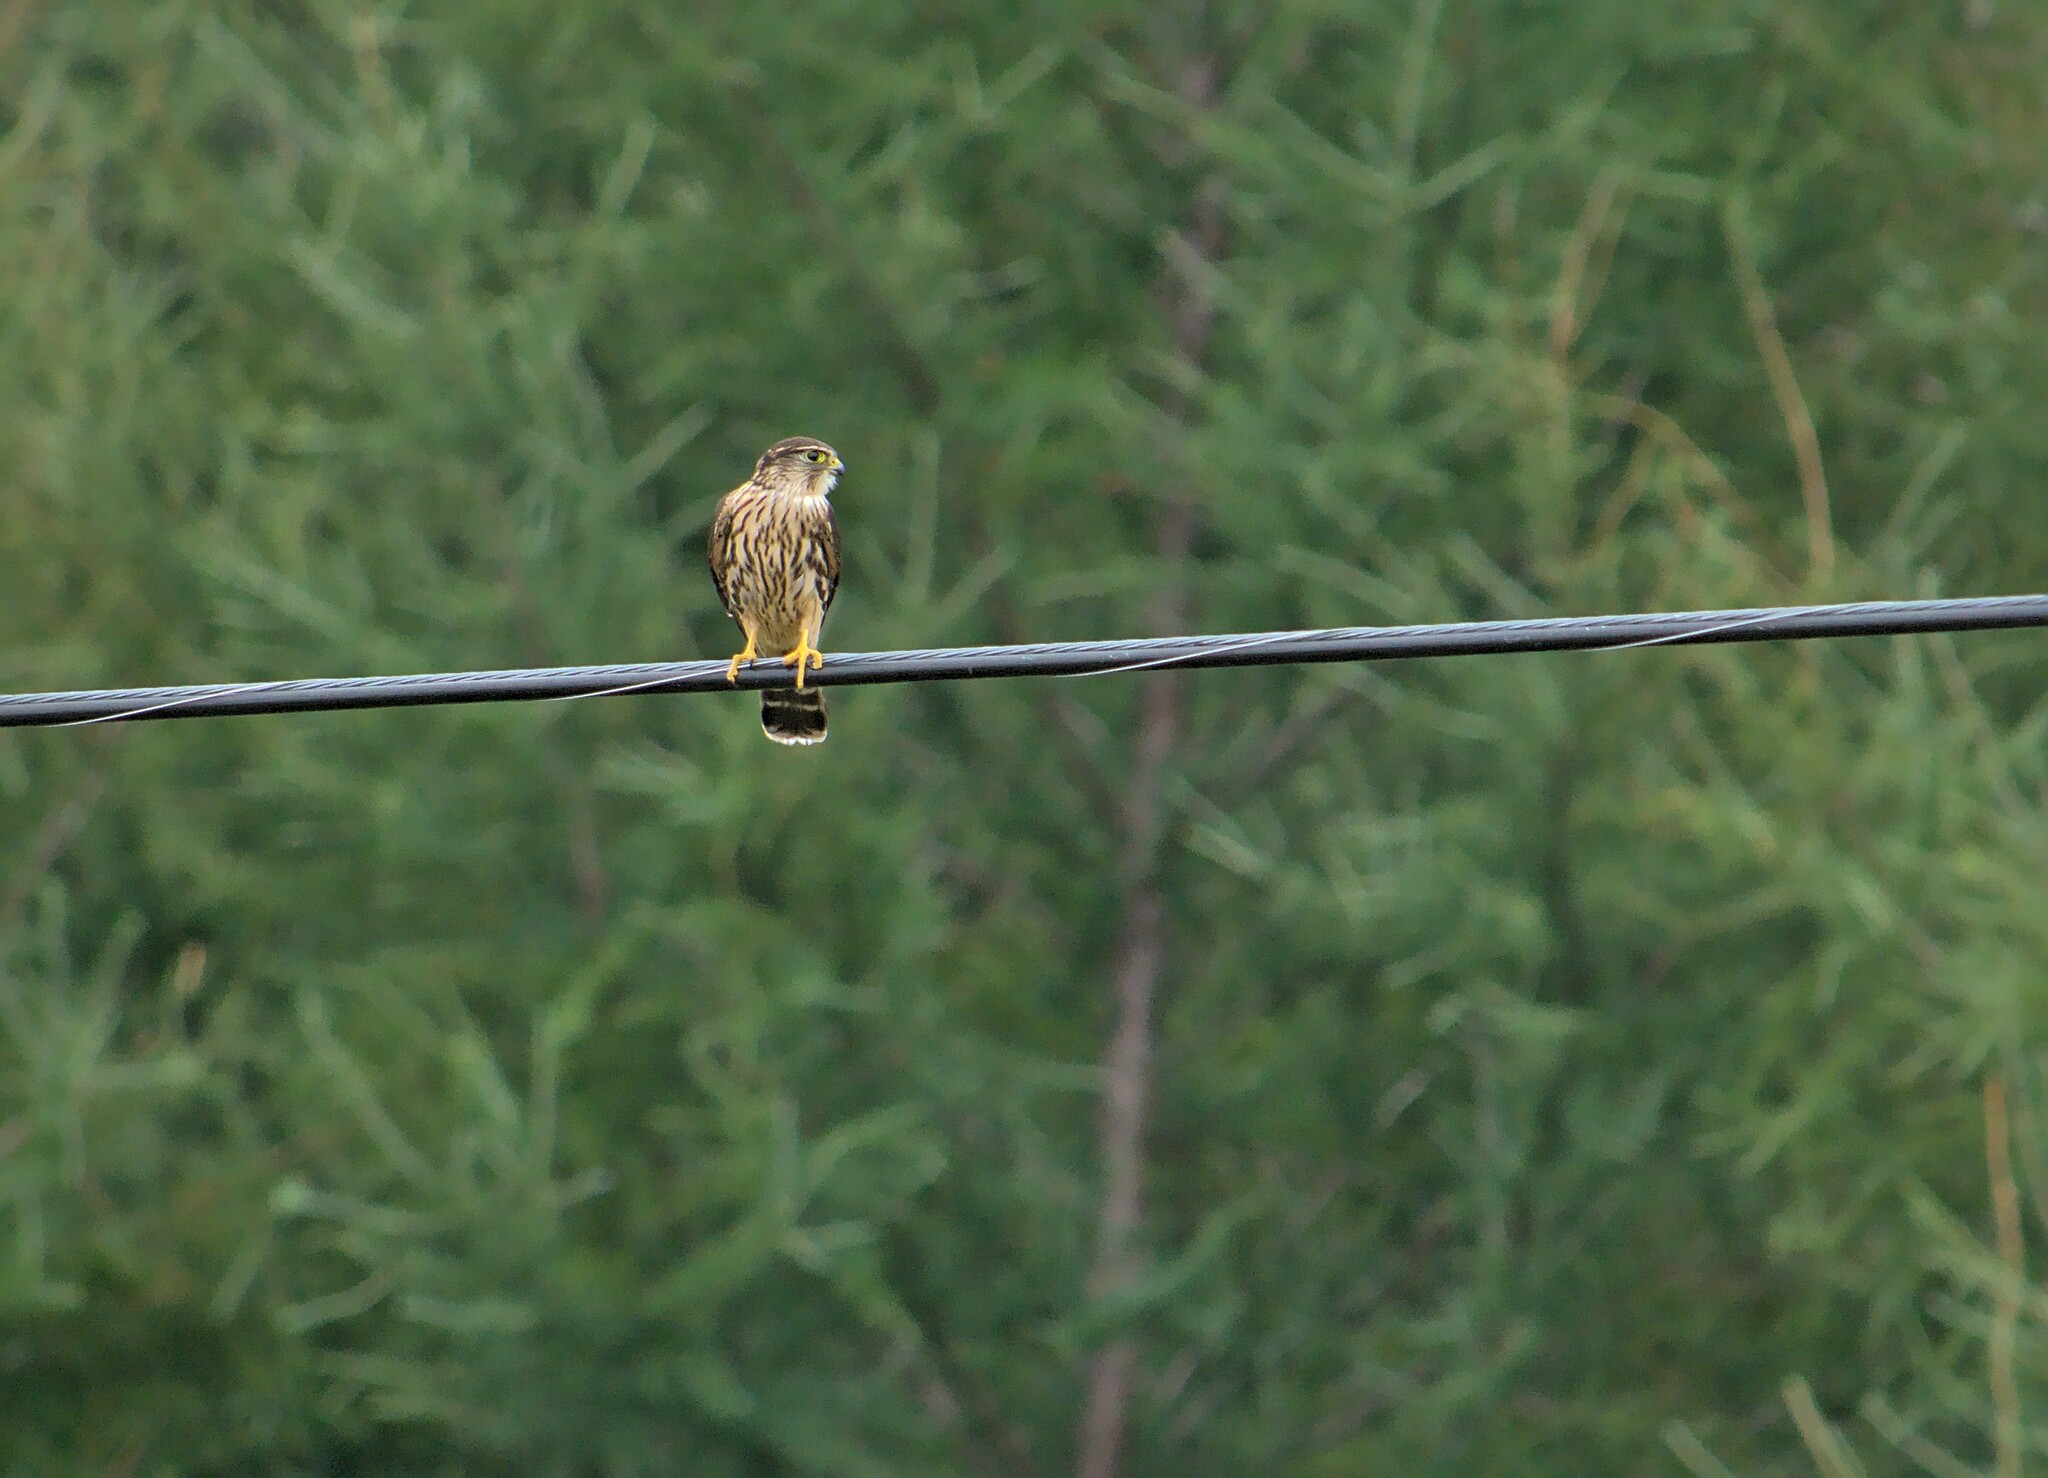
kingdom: Animalia
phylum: Chordata
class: Aves
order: Falconiformes
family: Falconidae
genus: Falco
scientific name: Falco columbarius
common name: Merlin
